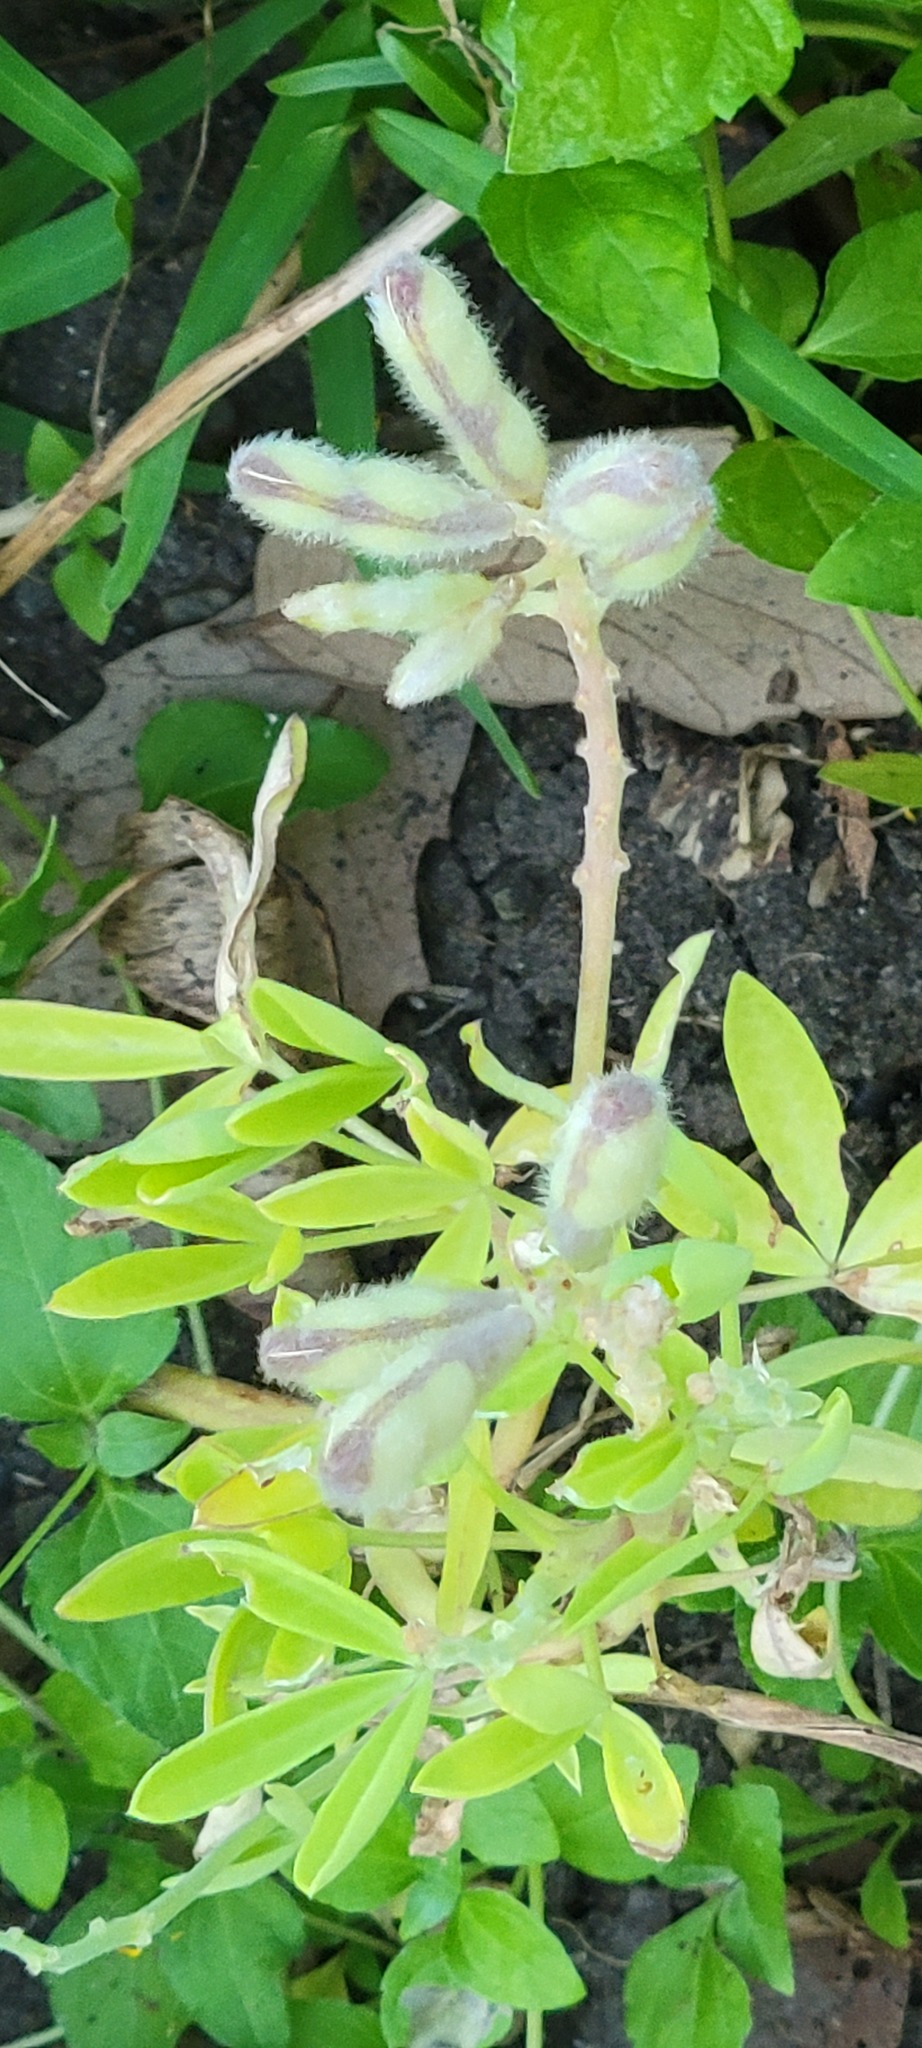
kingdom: Plantae
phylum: Tracheophyta
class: Magnoliopsida
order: Fabales
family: Fabaceae
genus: Lupinus
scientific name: Lupinus texensis
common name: Texas bluebonnet
